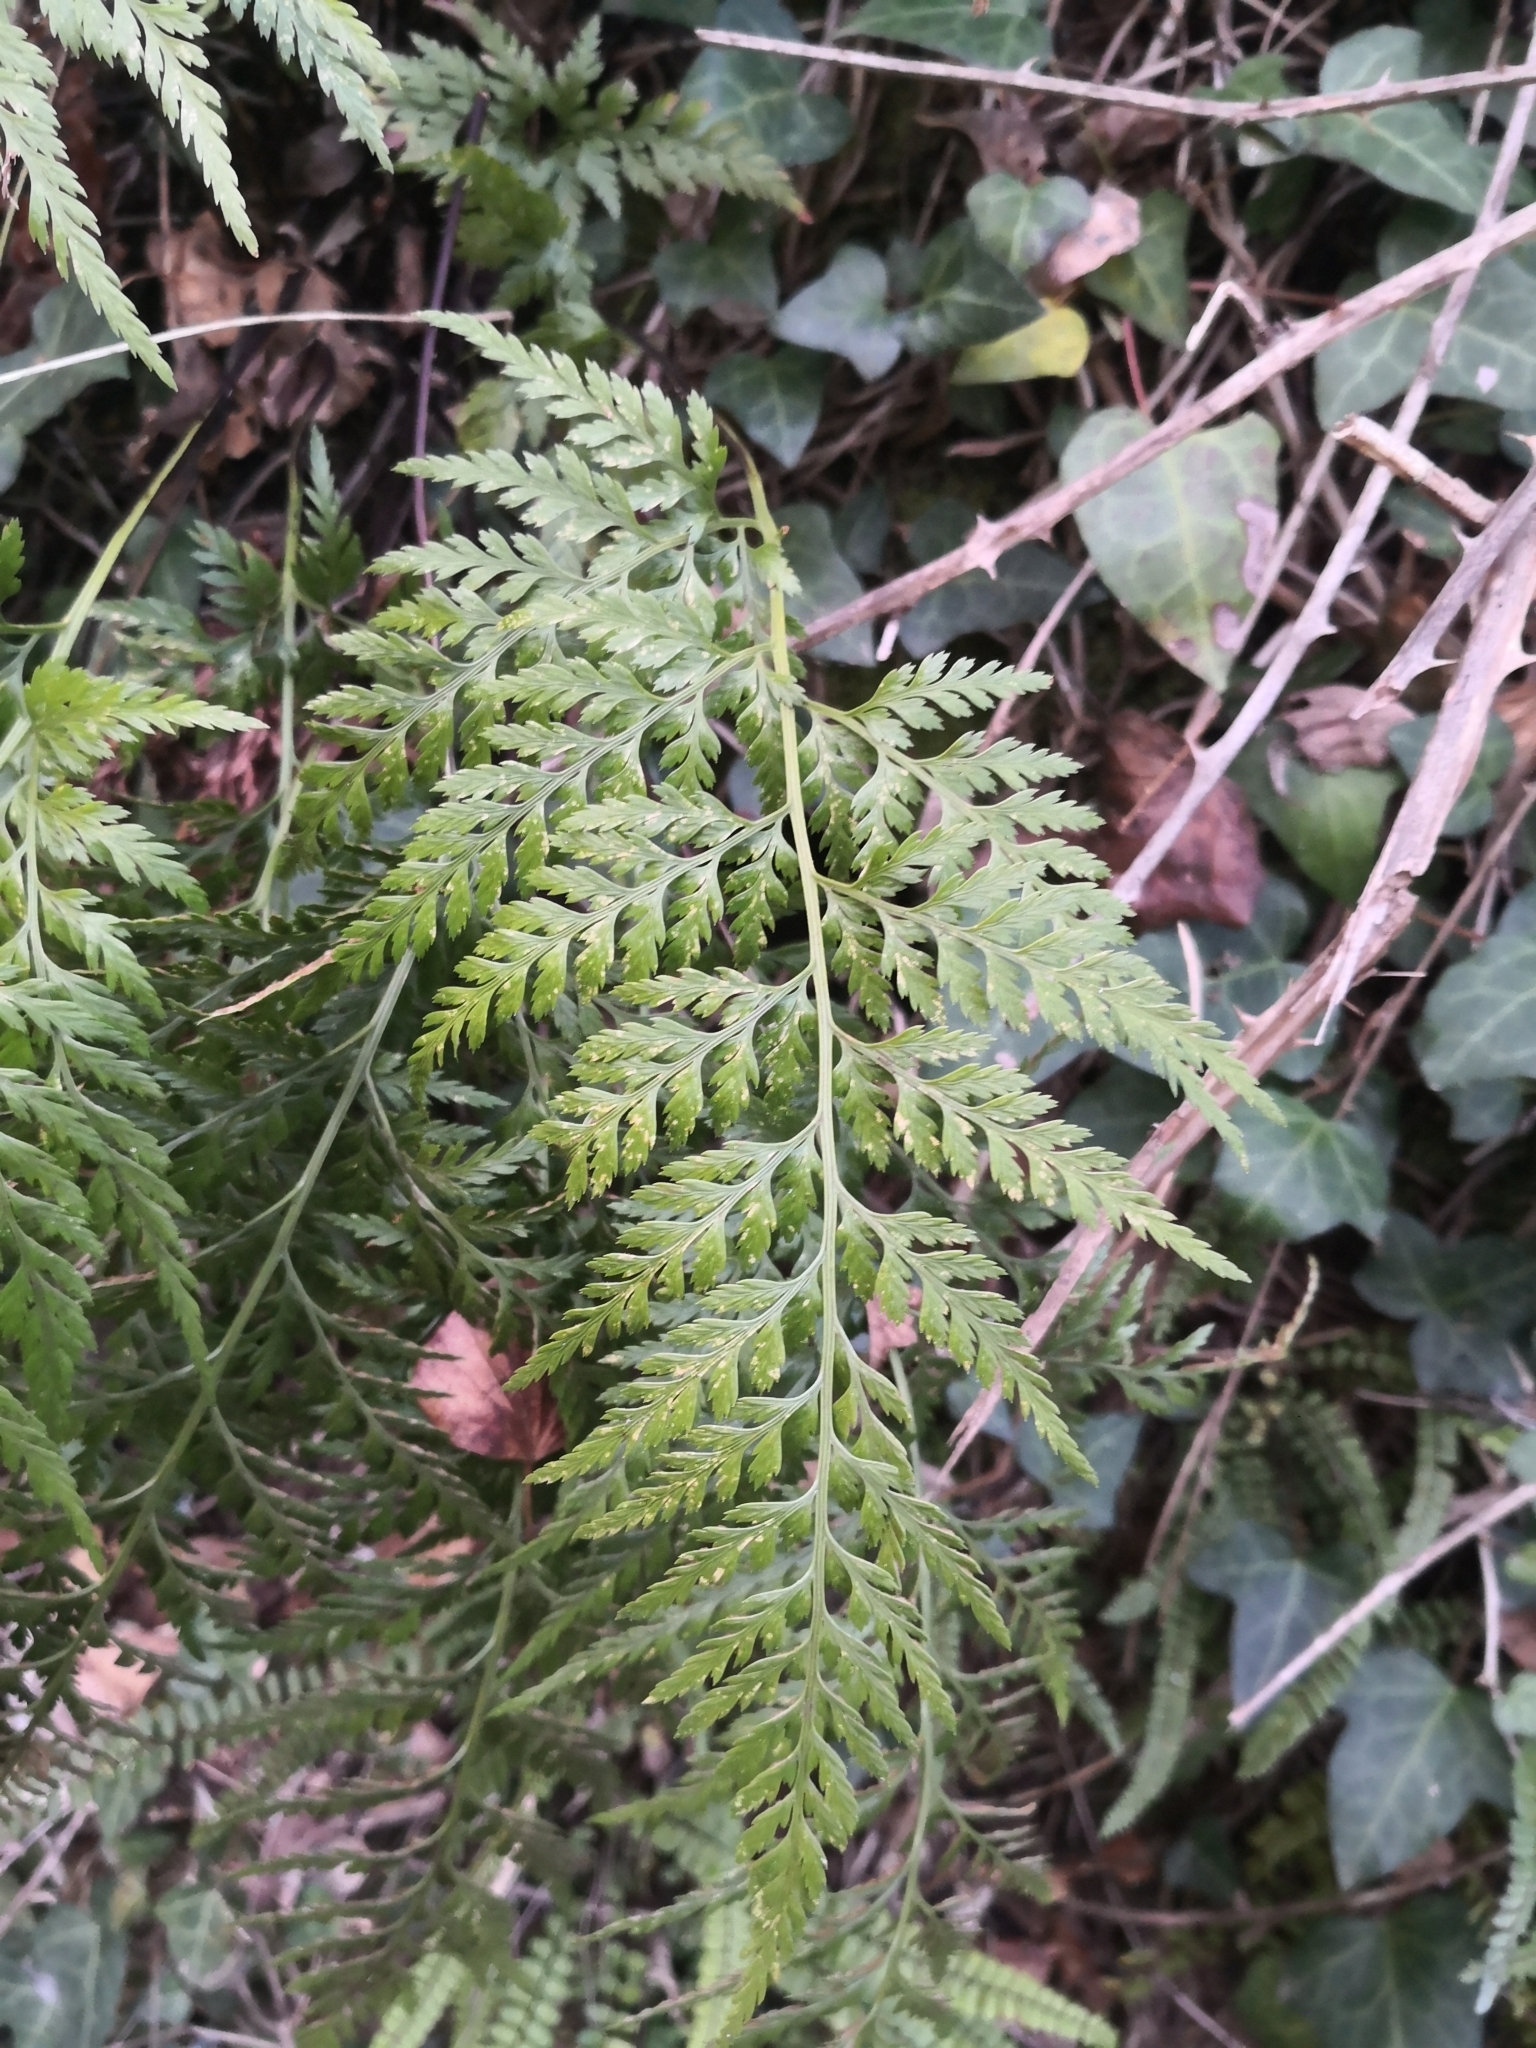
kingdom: Plantae
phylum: Tracheophyta
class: Polypodiopsida
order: Polypodiales
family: Aspleniaceae
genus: Asplenium
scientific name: Asplenium onopteris
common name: Irish spleenwort
